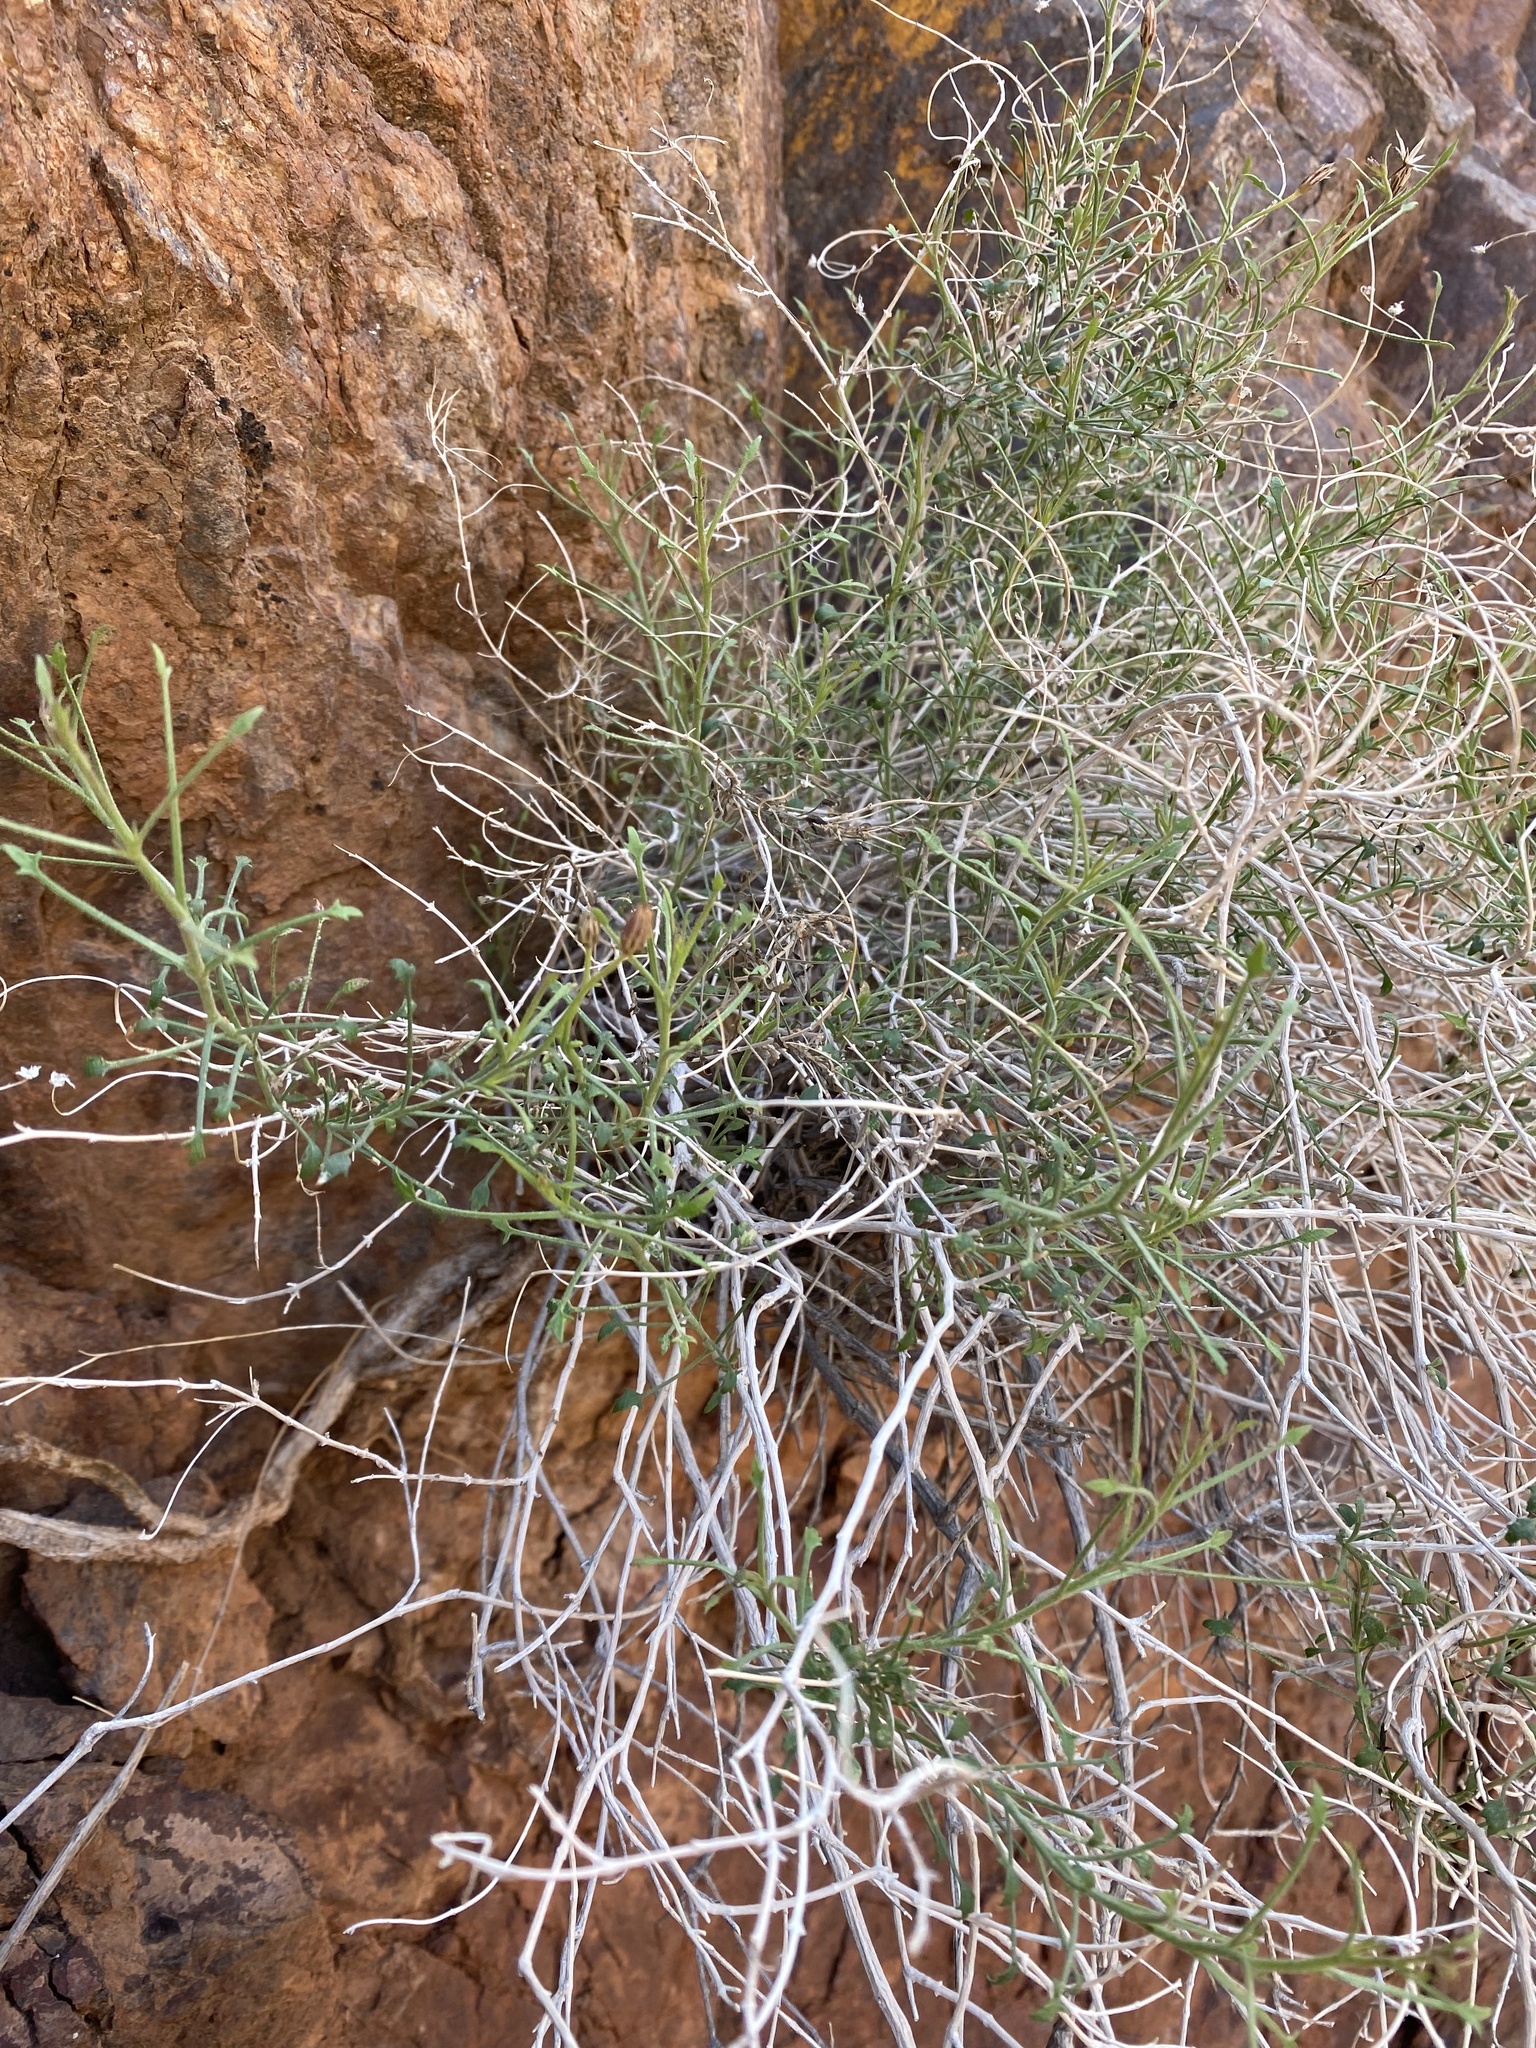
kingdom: Plantae
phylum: Tracheophyta
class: Magnoliopsida
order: Asterales
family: Asteraceae
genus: Pleurocoronis
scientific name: Pleurocoronis pluriseta
